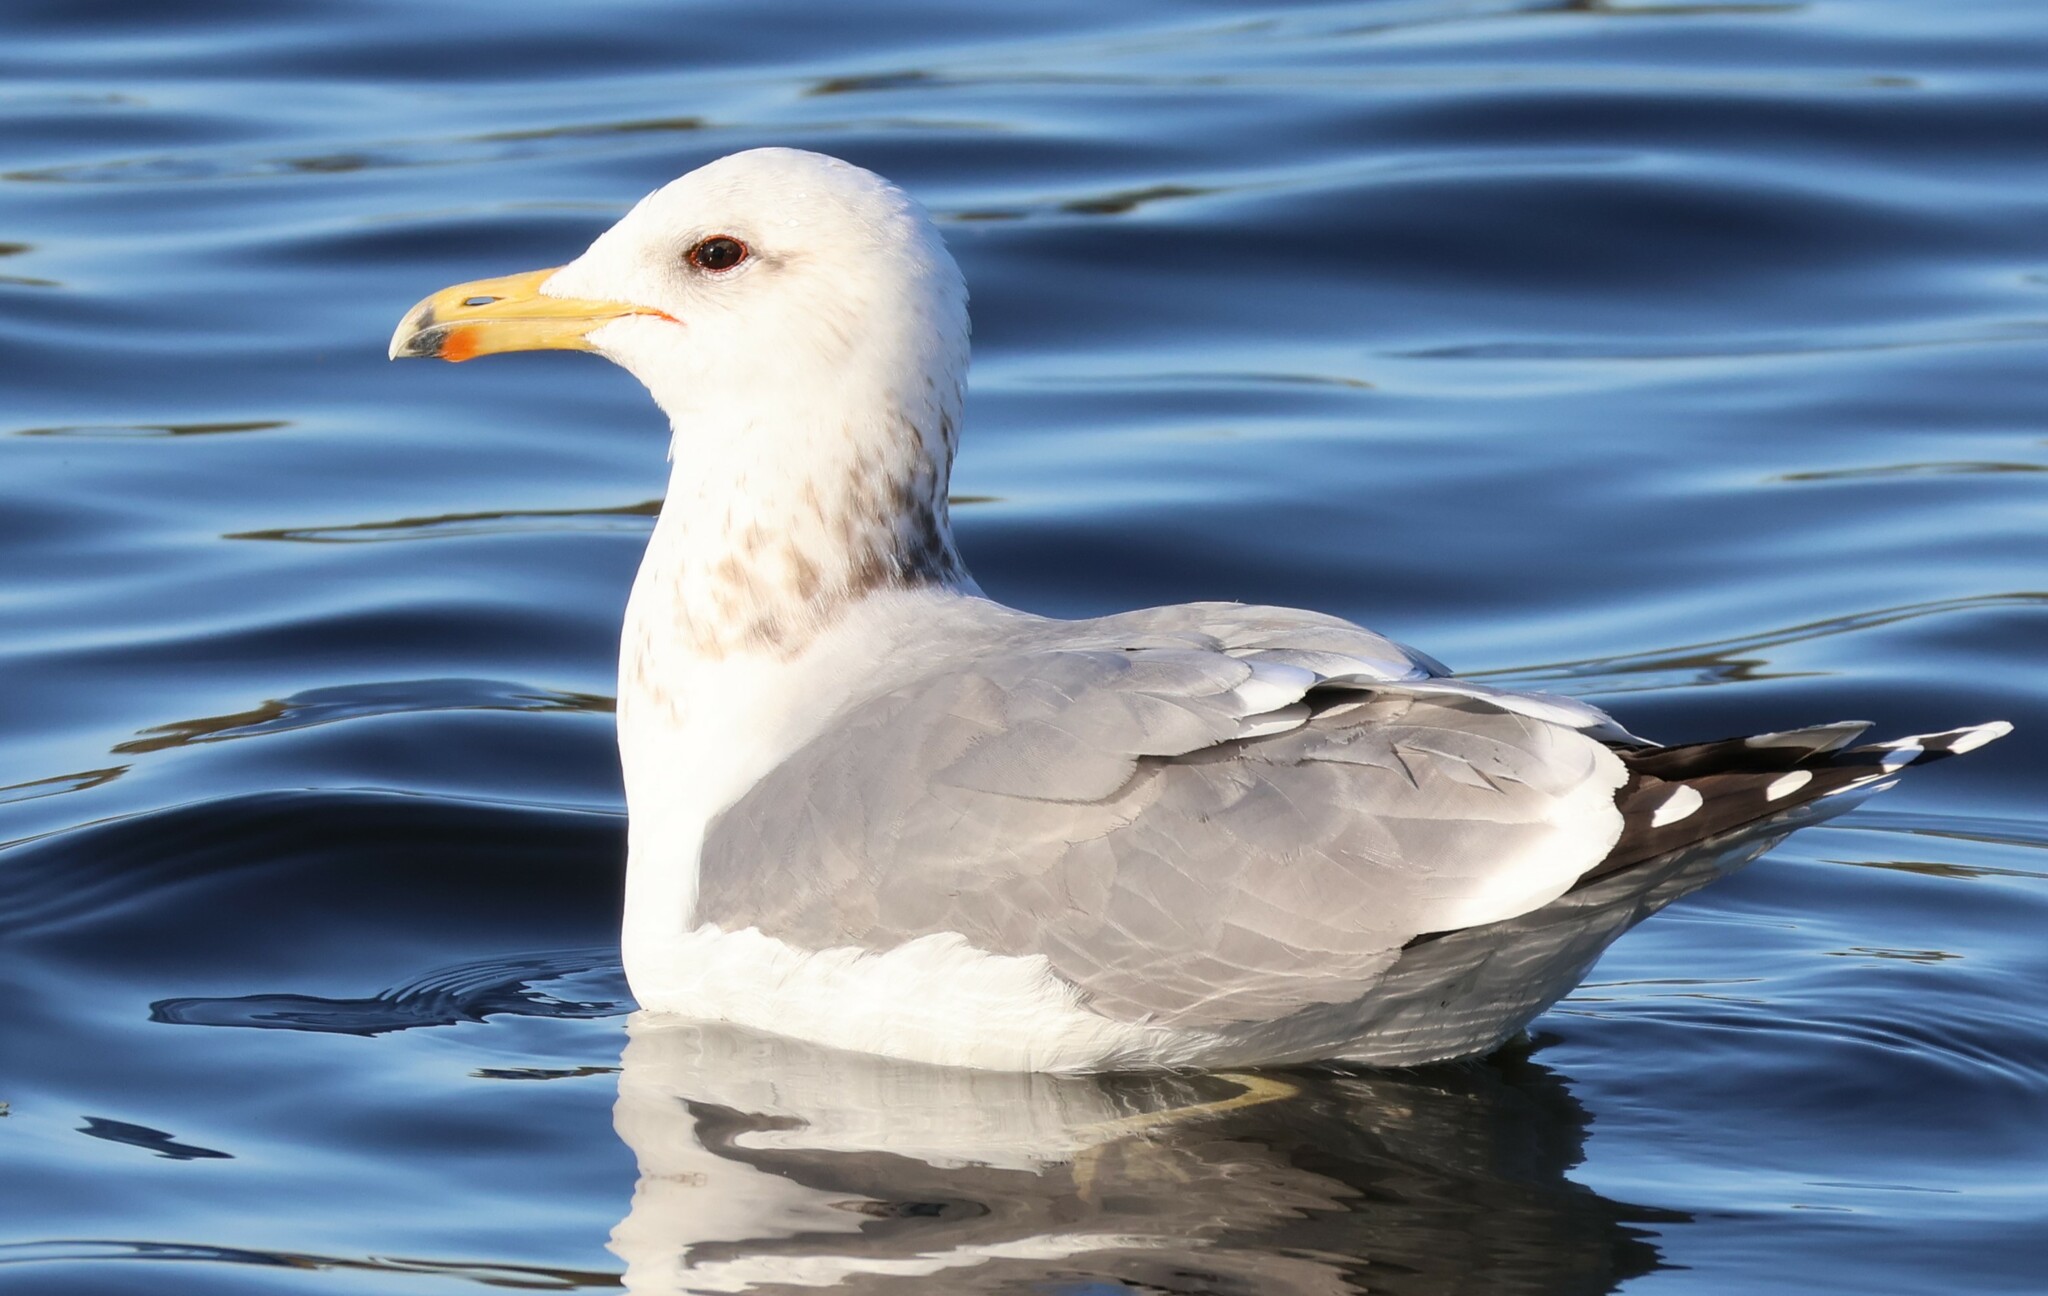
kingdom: Animalia
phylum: Chordata
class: Aves
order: Charadriiformes
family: Laridae
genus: Larus
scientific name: Larus californicus
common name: California gull
